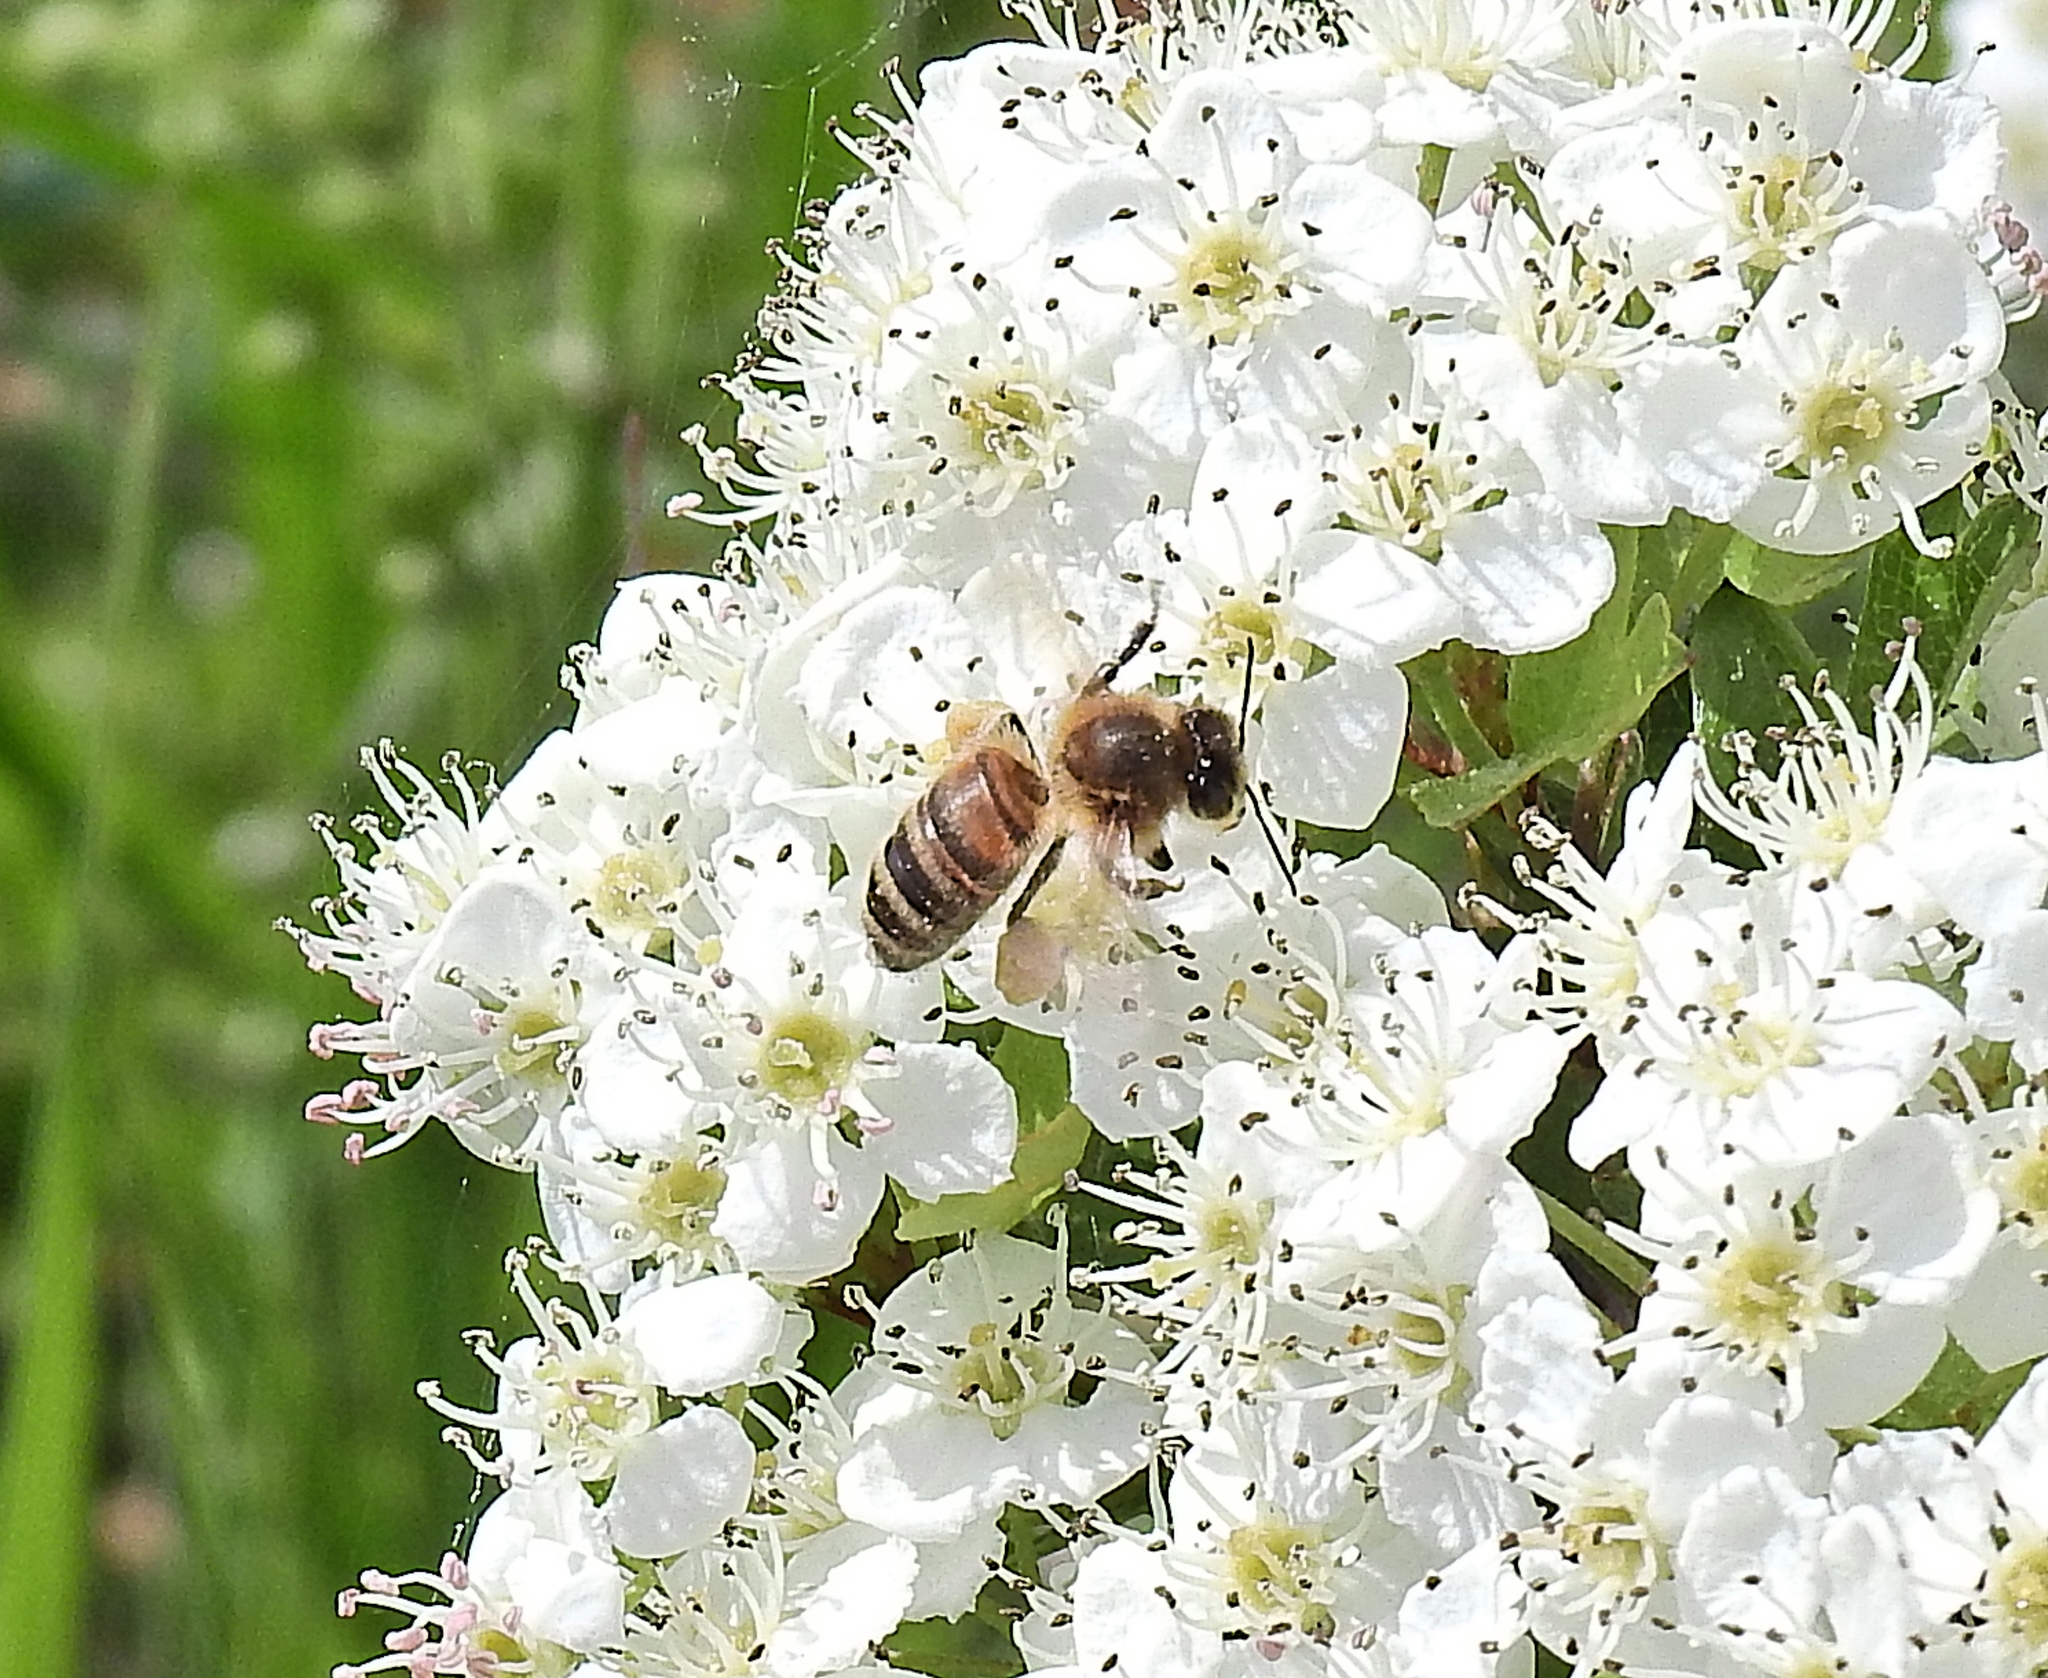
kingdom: Animalia
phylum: Arthropoda
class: Insecta
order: Hymenoptera
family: Apidae
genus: Apis
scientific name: Apis mellifera
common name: Honey bee
